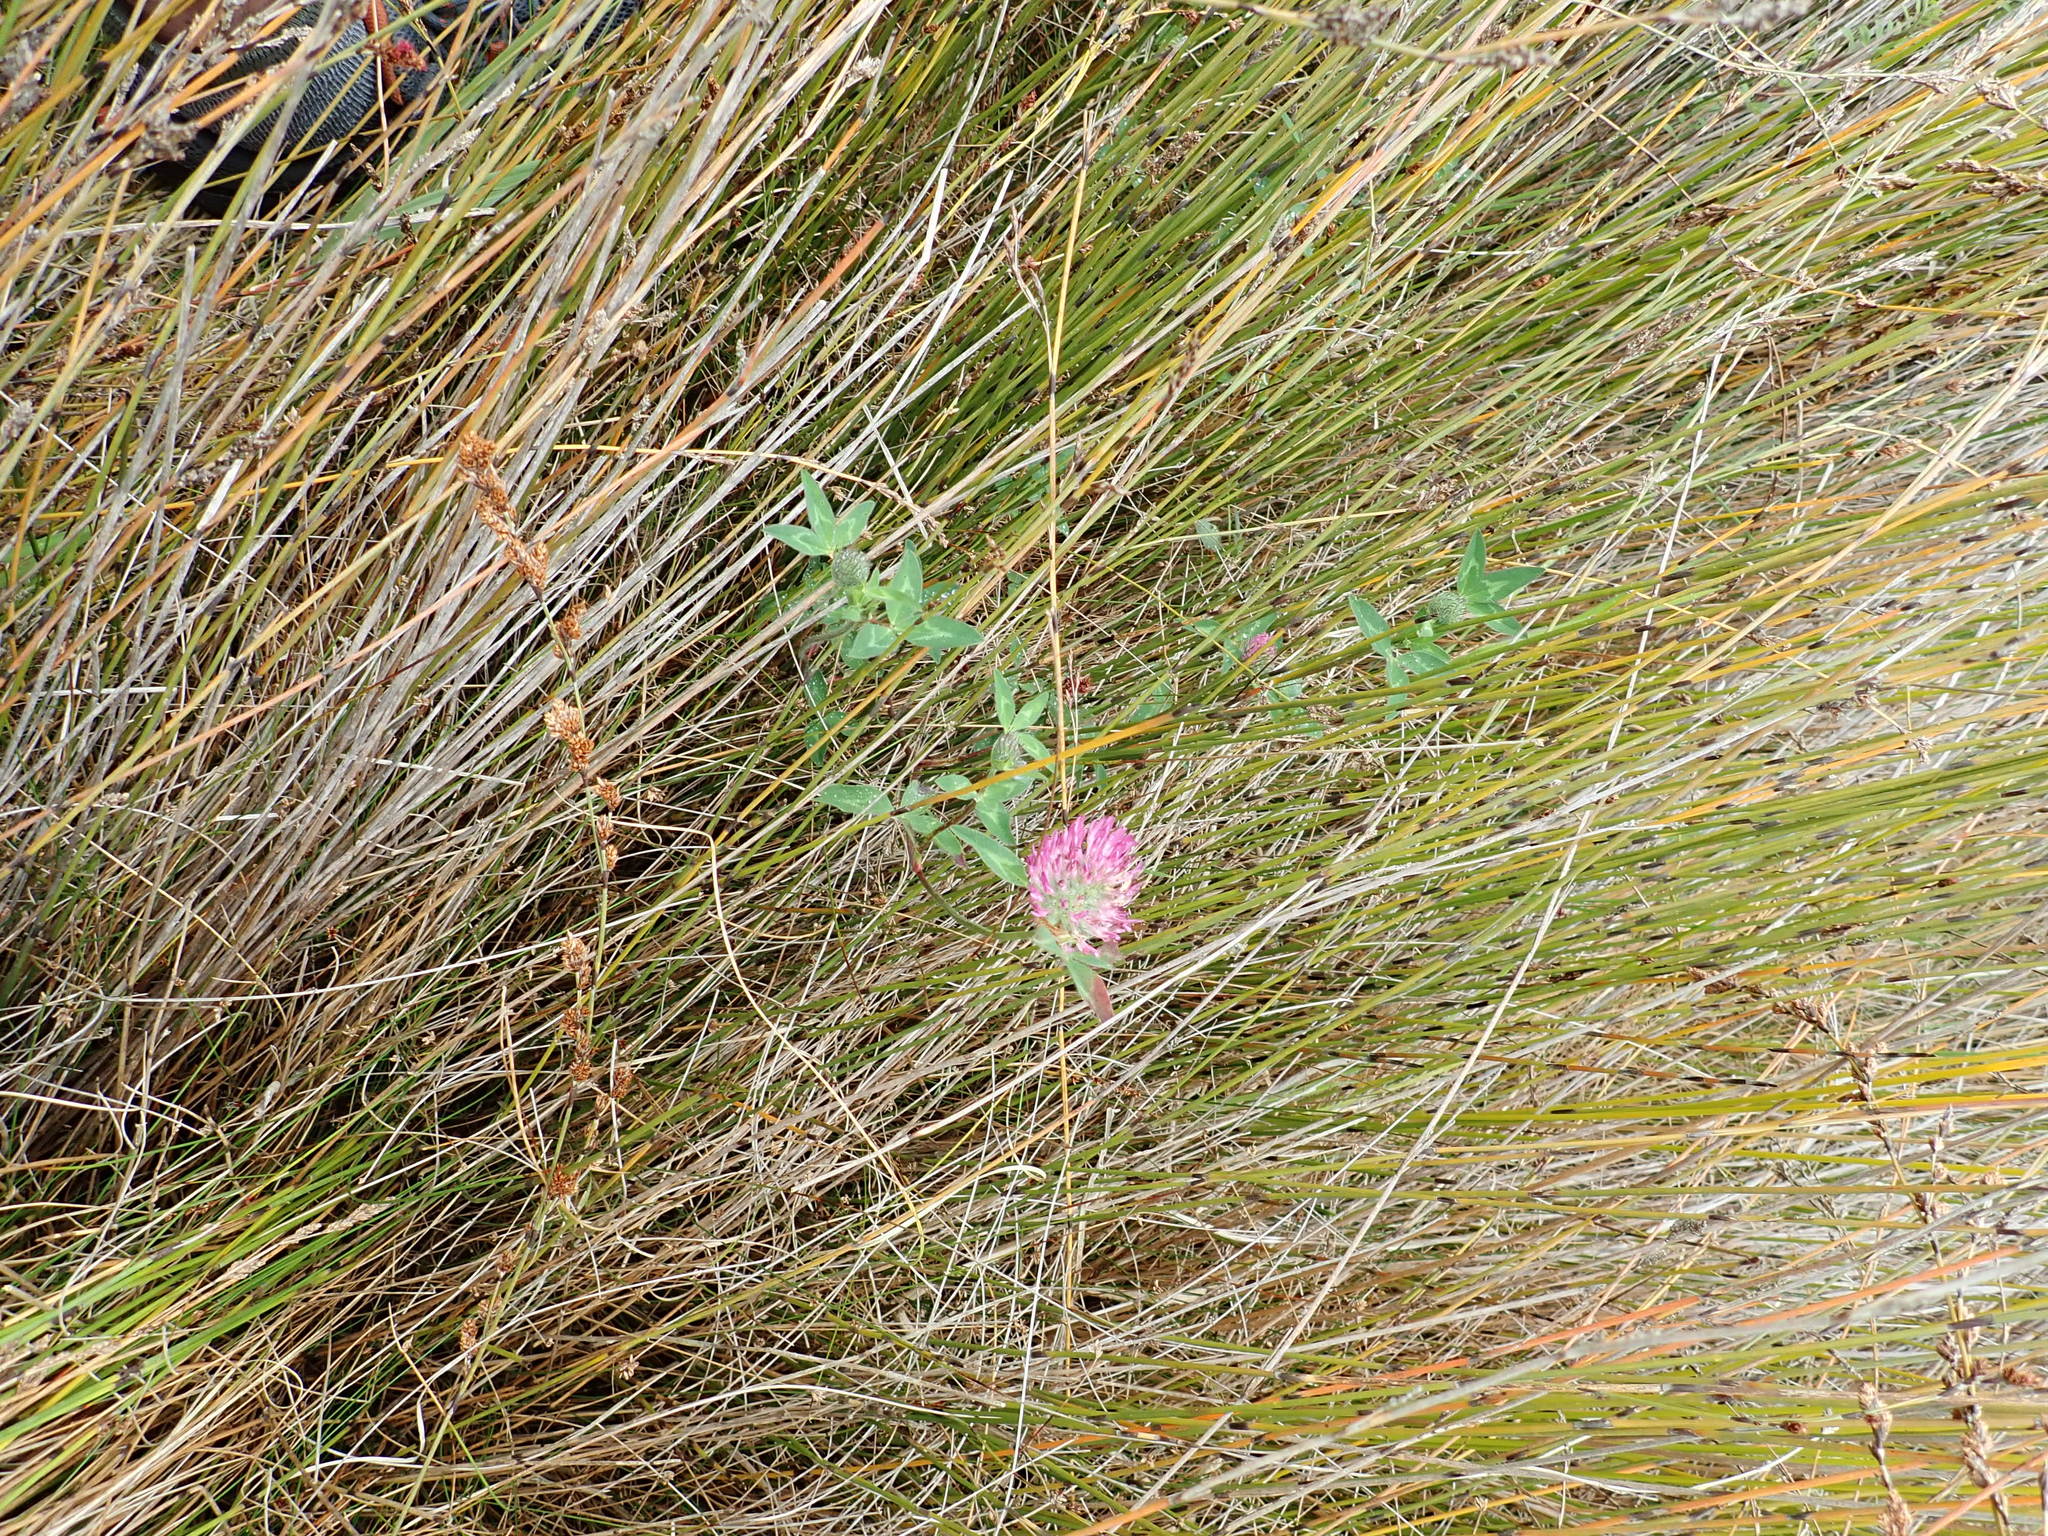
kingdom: Plantae
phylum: Tracheophyta
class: Magnoliopsida
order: Fabales
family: Fabaceae
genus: Trifolium
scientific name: Trifolium pratense
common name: Red clover
